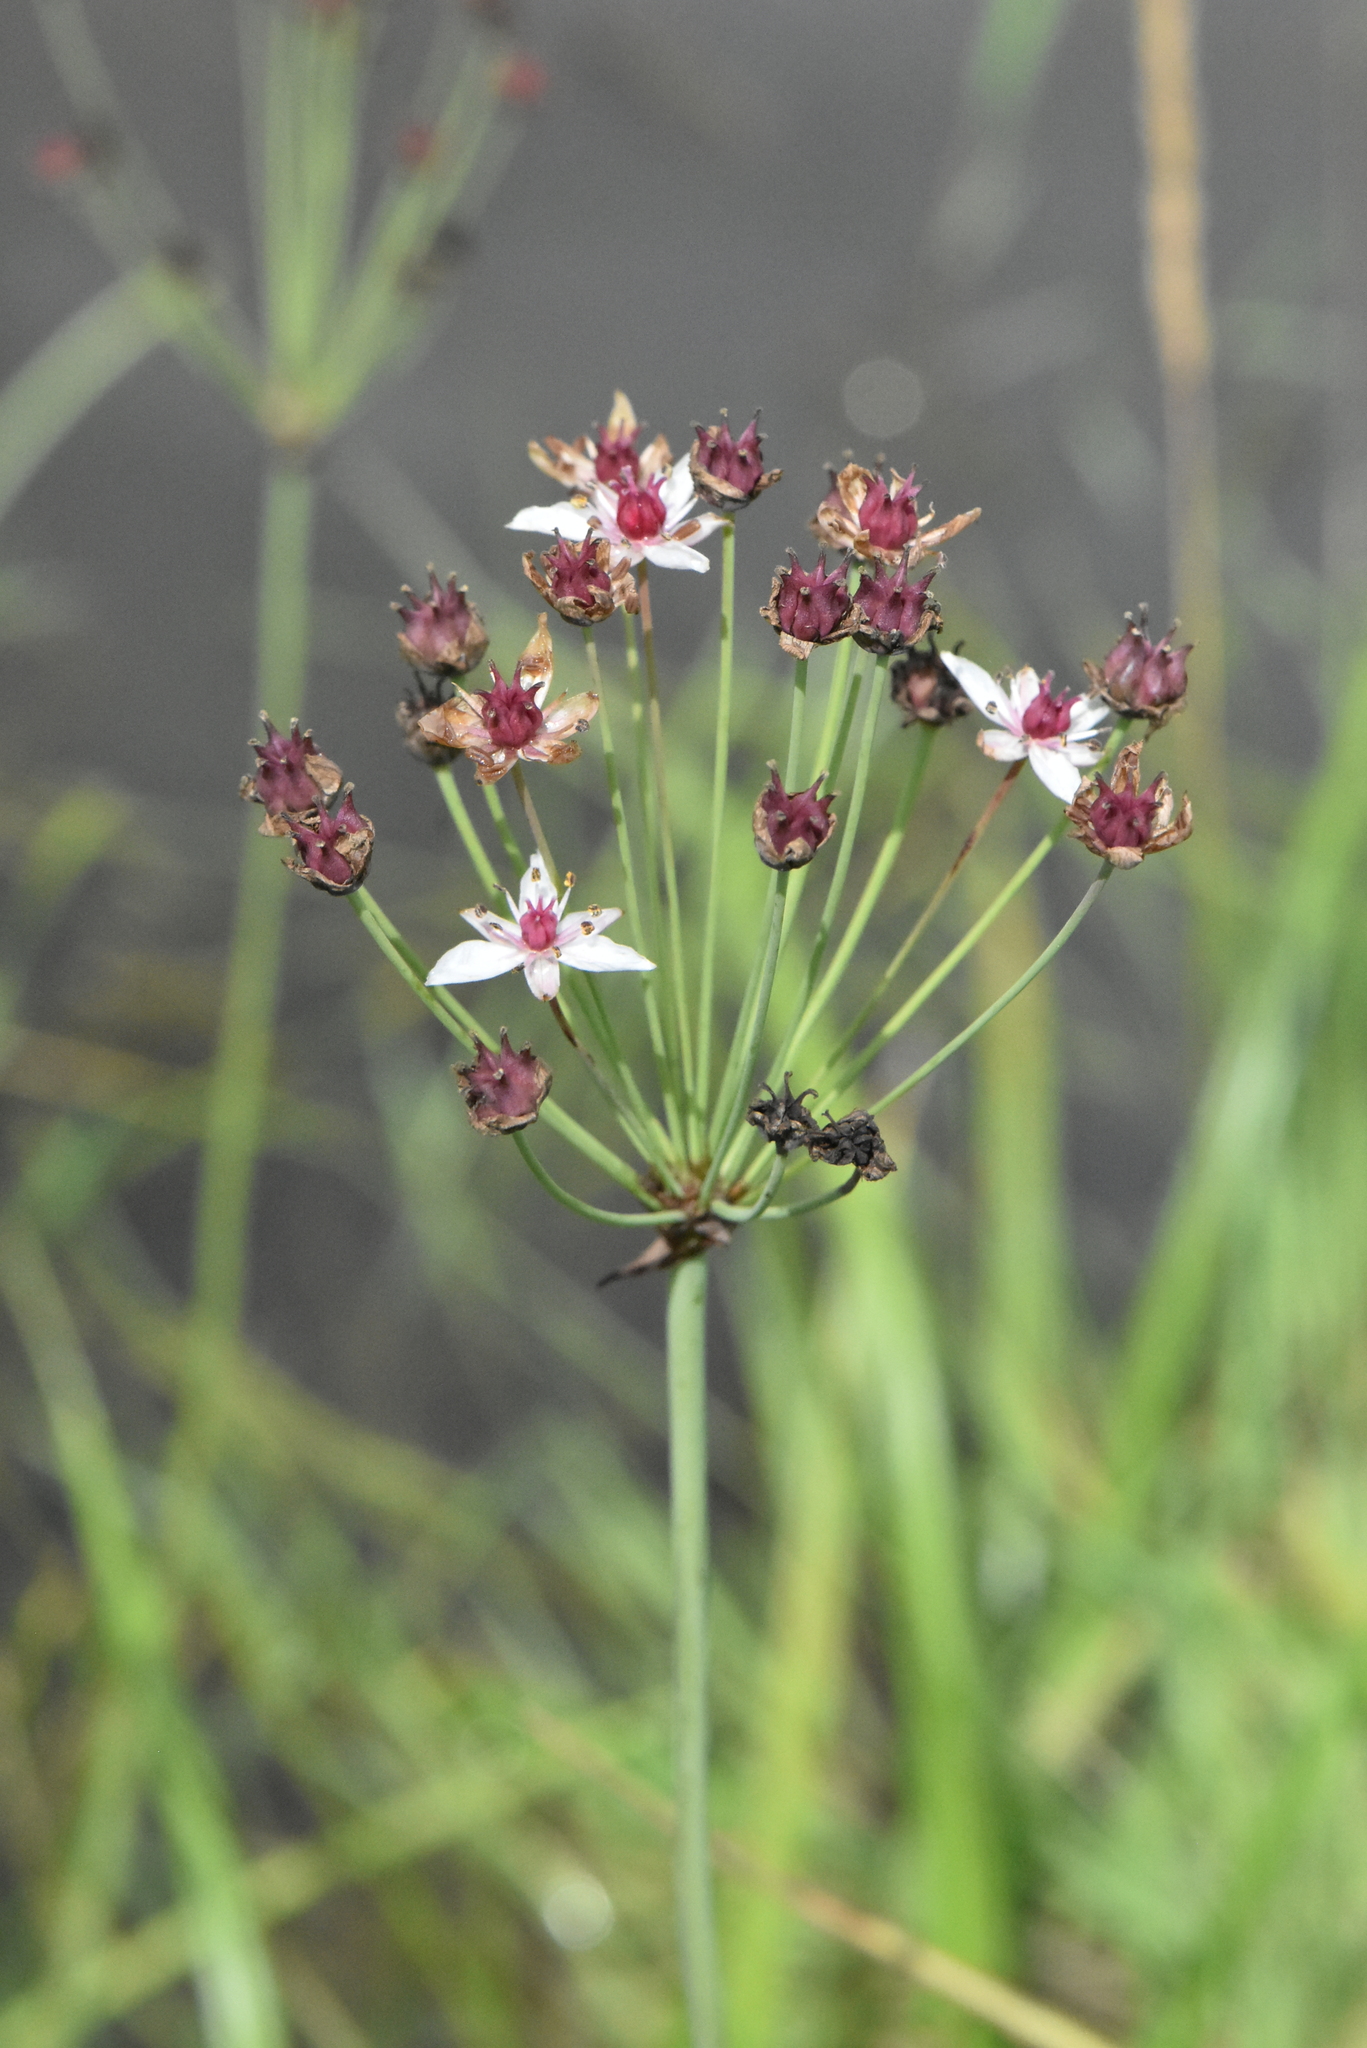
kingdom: Plantae
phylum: Tracheophyta
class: Liliopsida
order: Alismatales
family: Butomaceae
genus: Butomus
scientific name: Butomus umbellatus
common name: Flowering-rush
